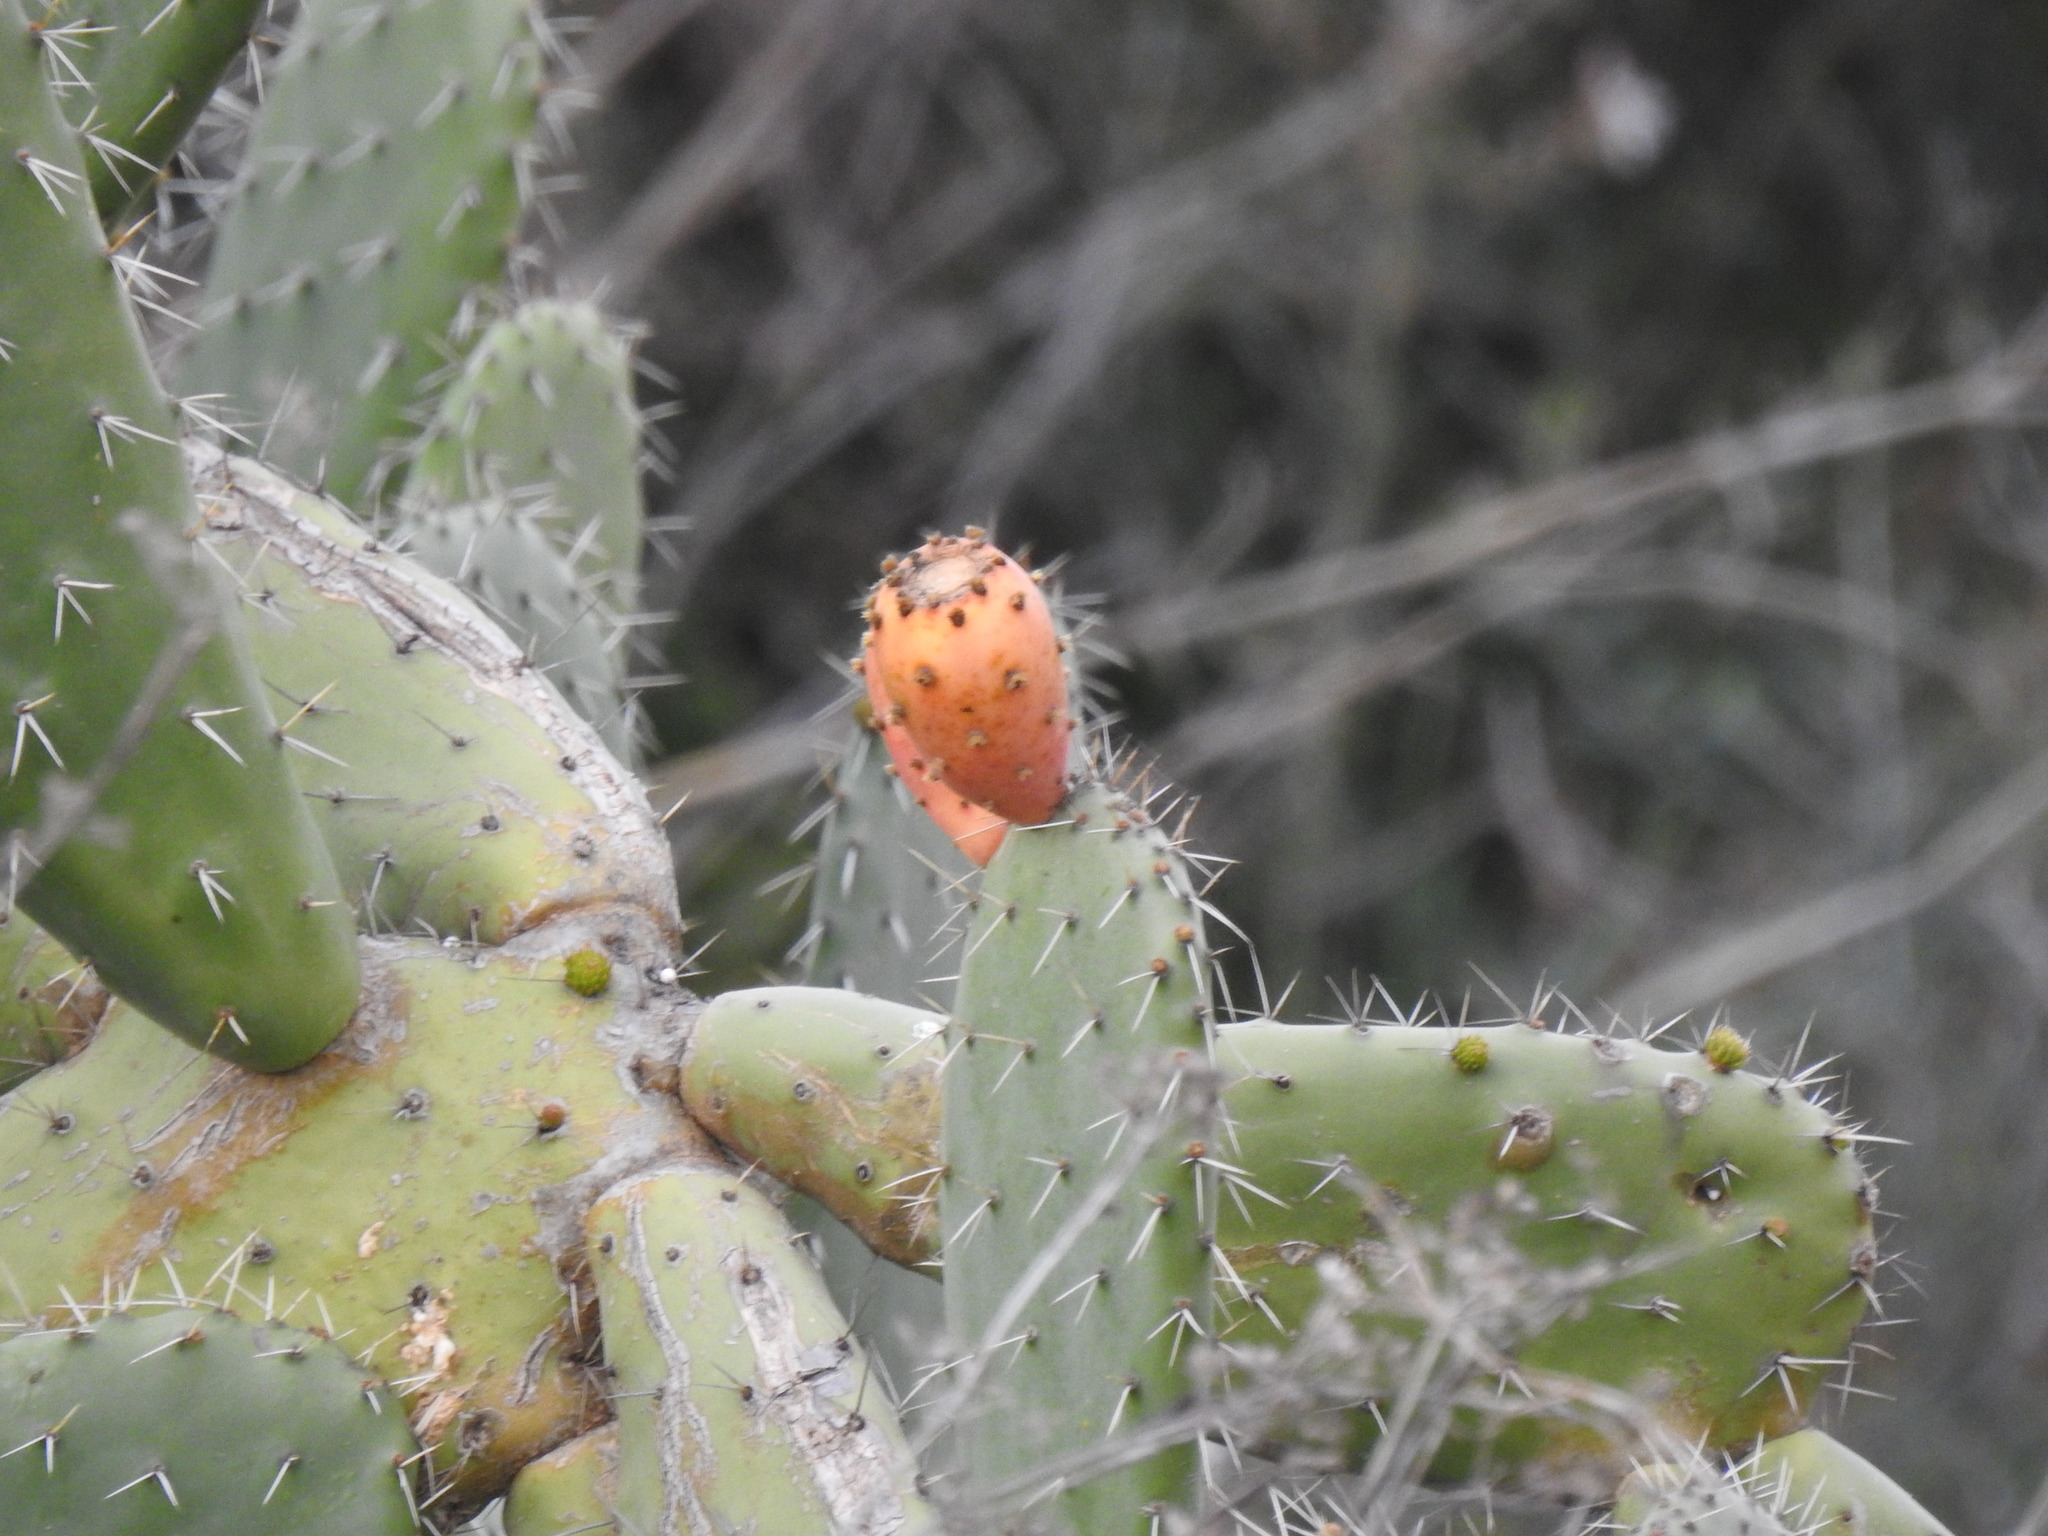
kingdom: Plantae
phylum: Tracheophyta
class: Magnoliopsida
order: Caryophyllales
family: Cactaceae
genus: Opuntia
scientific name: Opuntia ficus-indica
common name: Barbary fig
